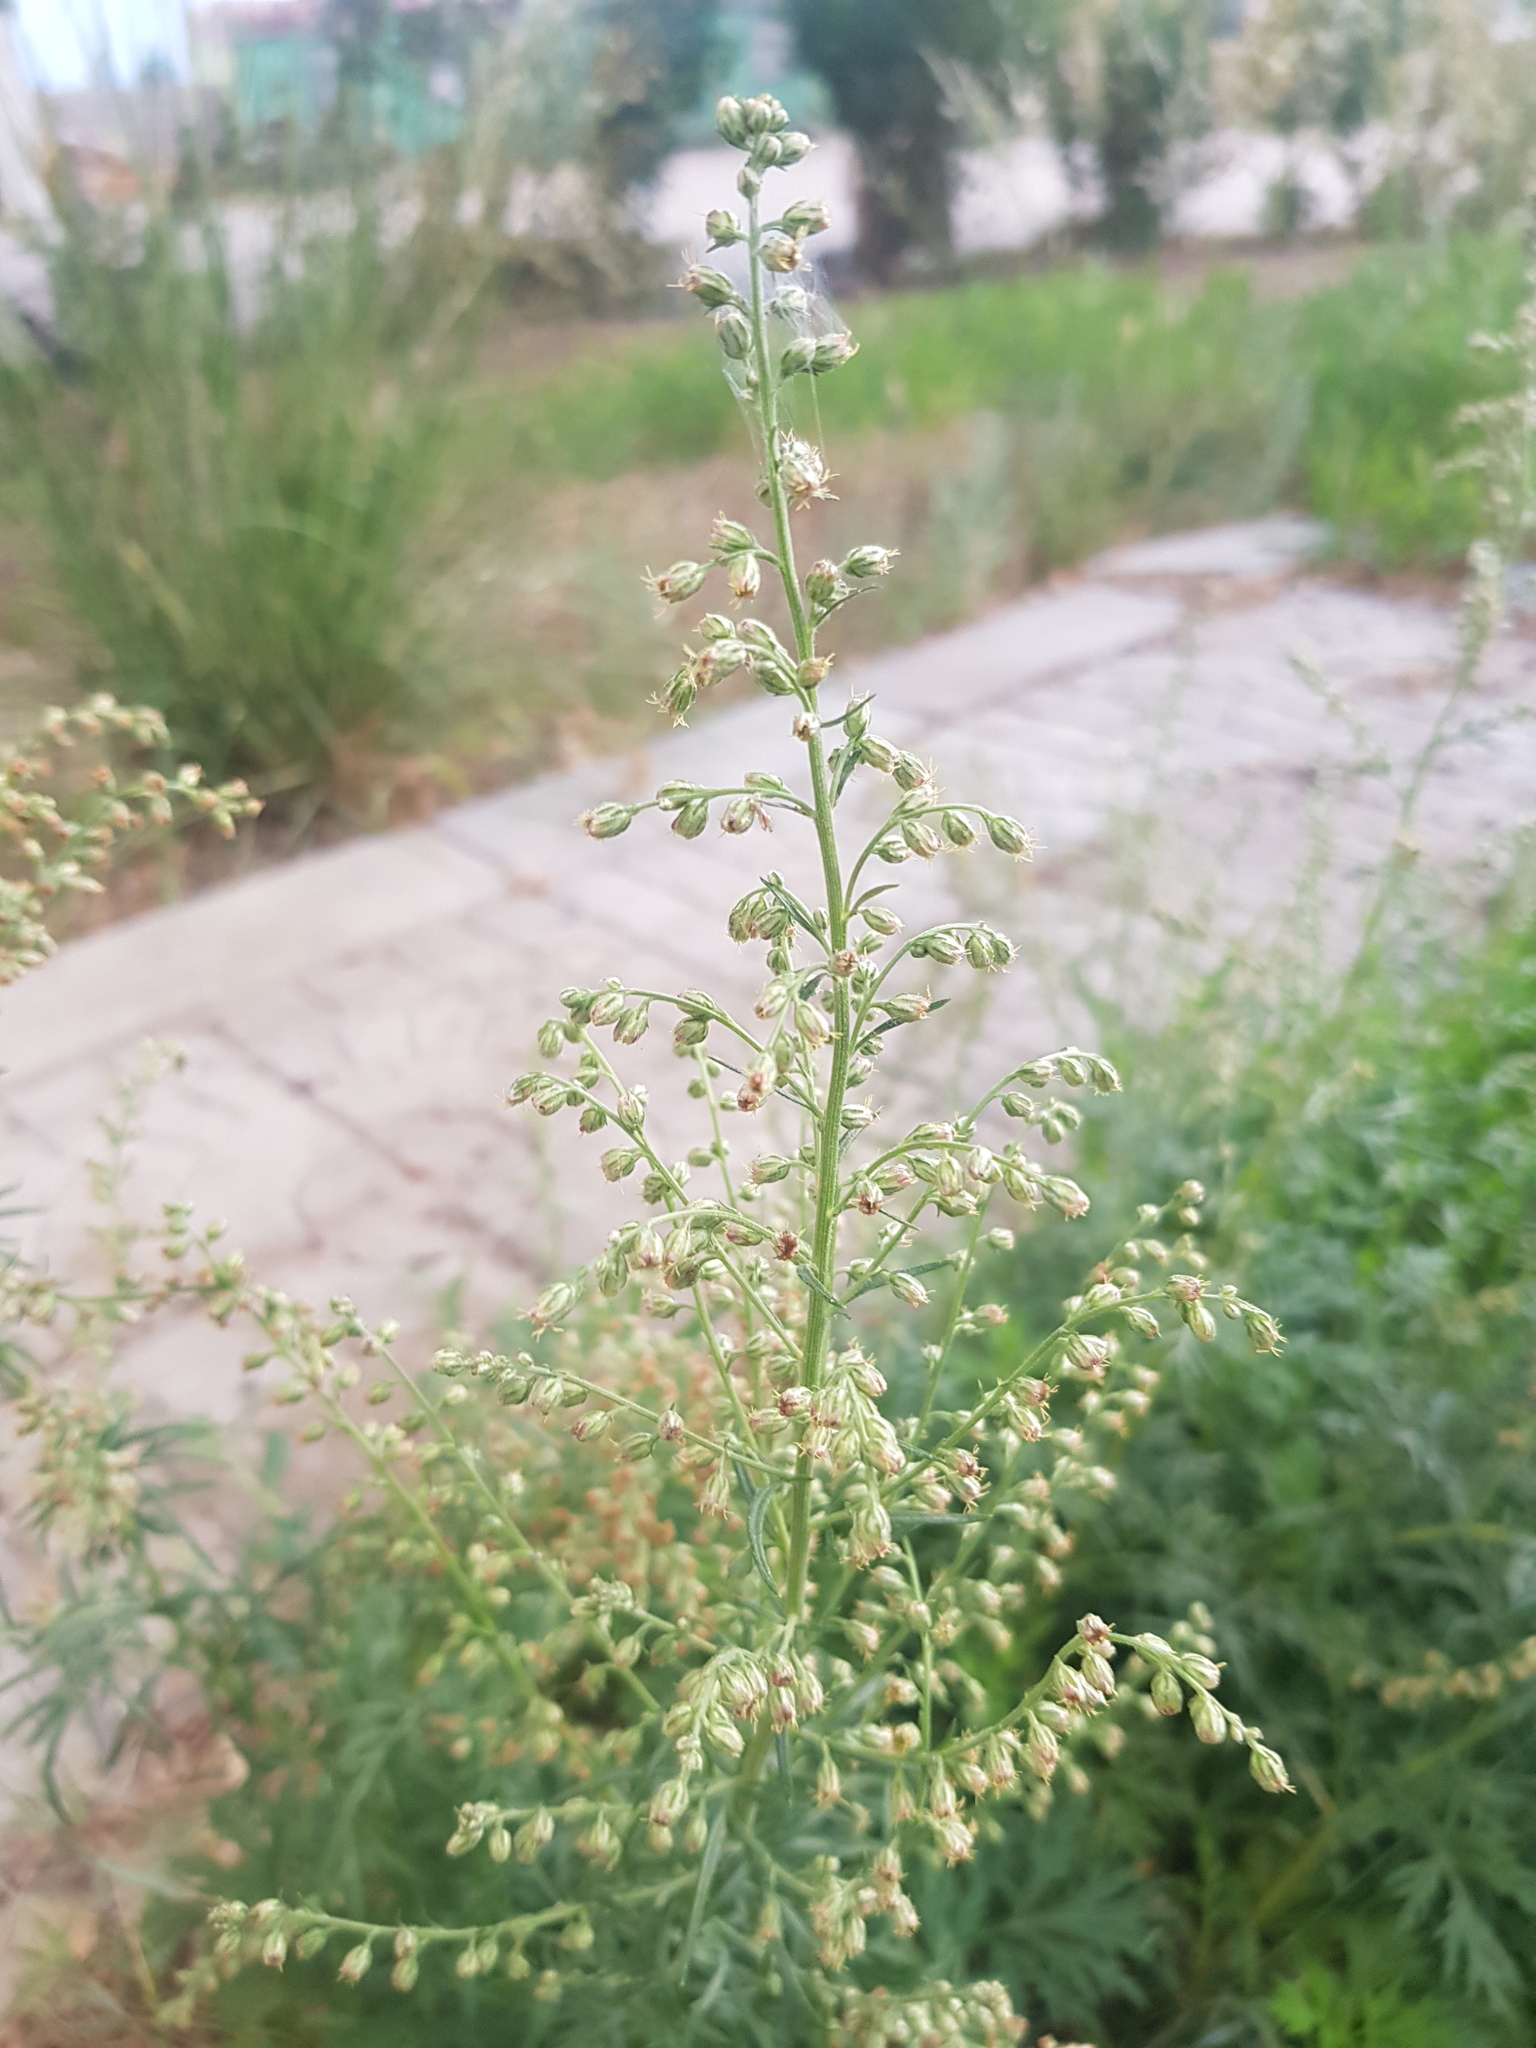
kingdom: Plantae
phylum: Tracheophyta
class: Magnoliopsida
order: Asterales
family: Asteraceae
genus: Artemisia
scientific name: Artemisia annua
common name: Sweet sagewort
